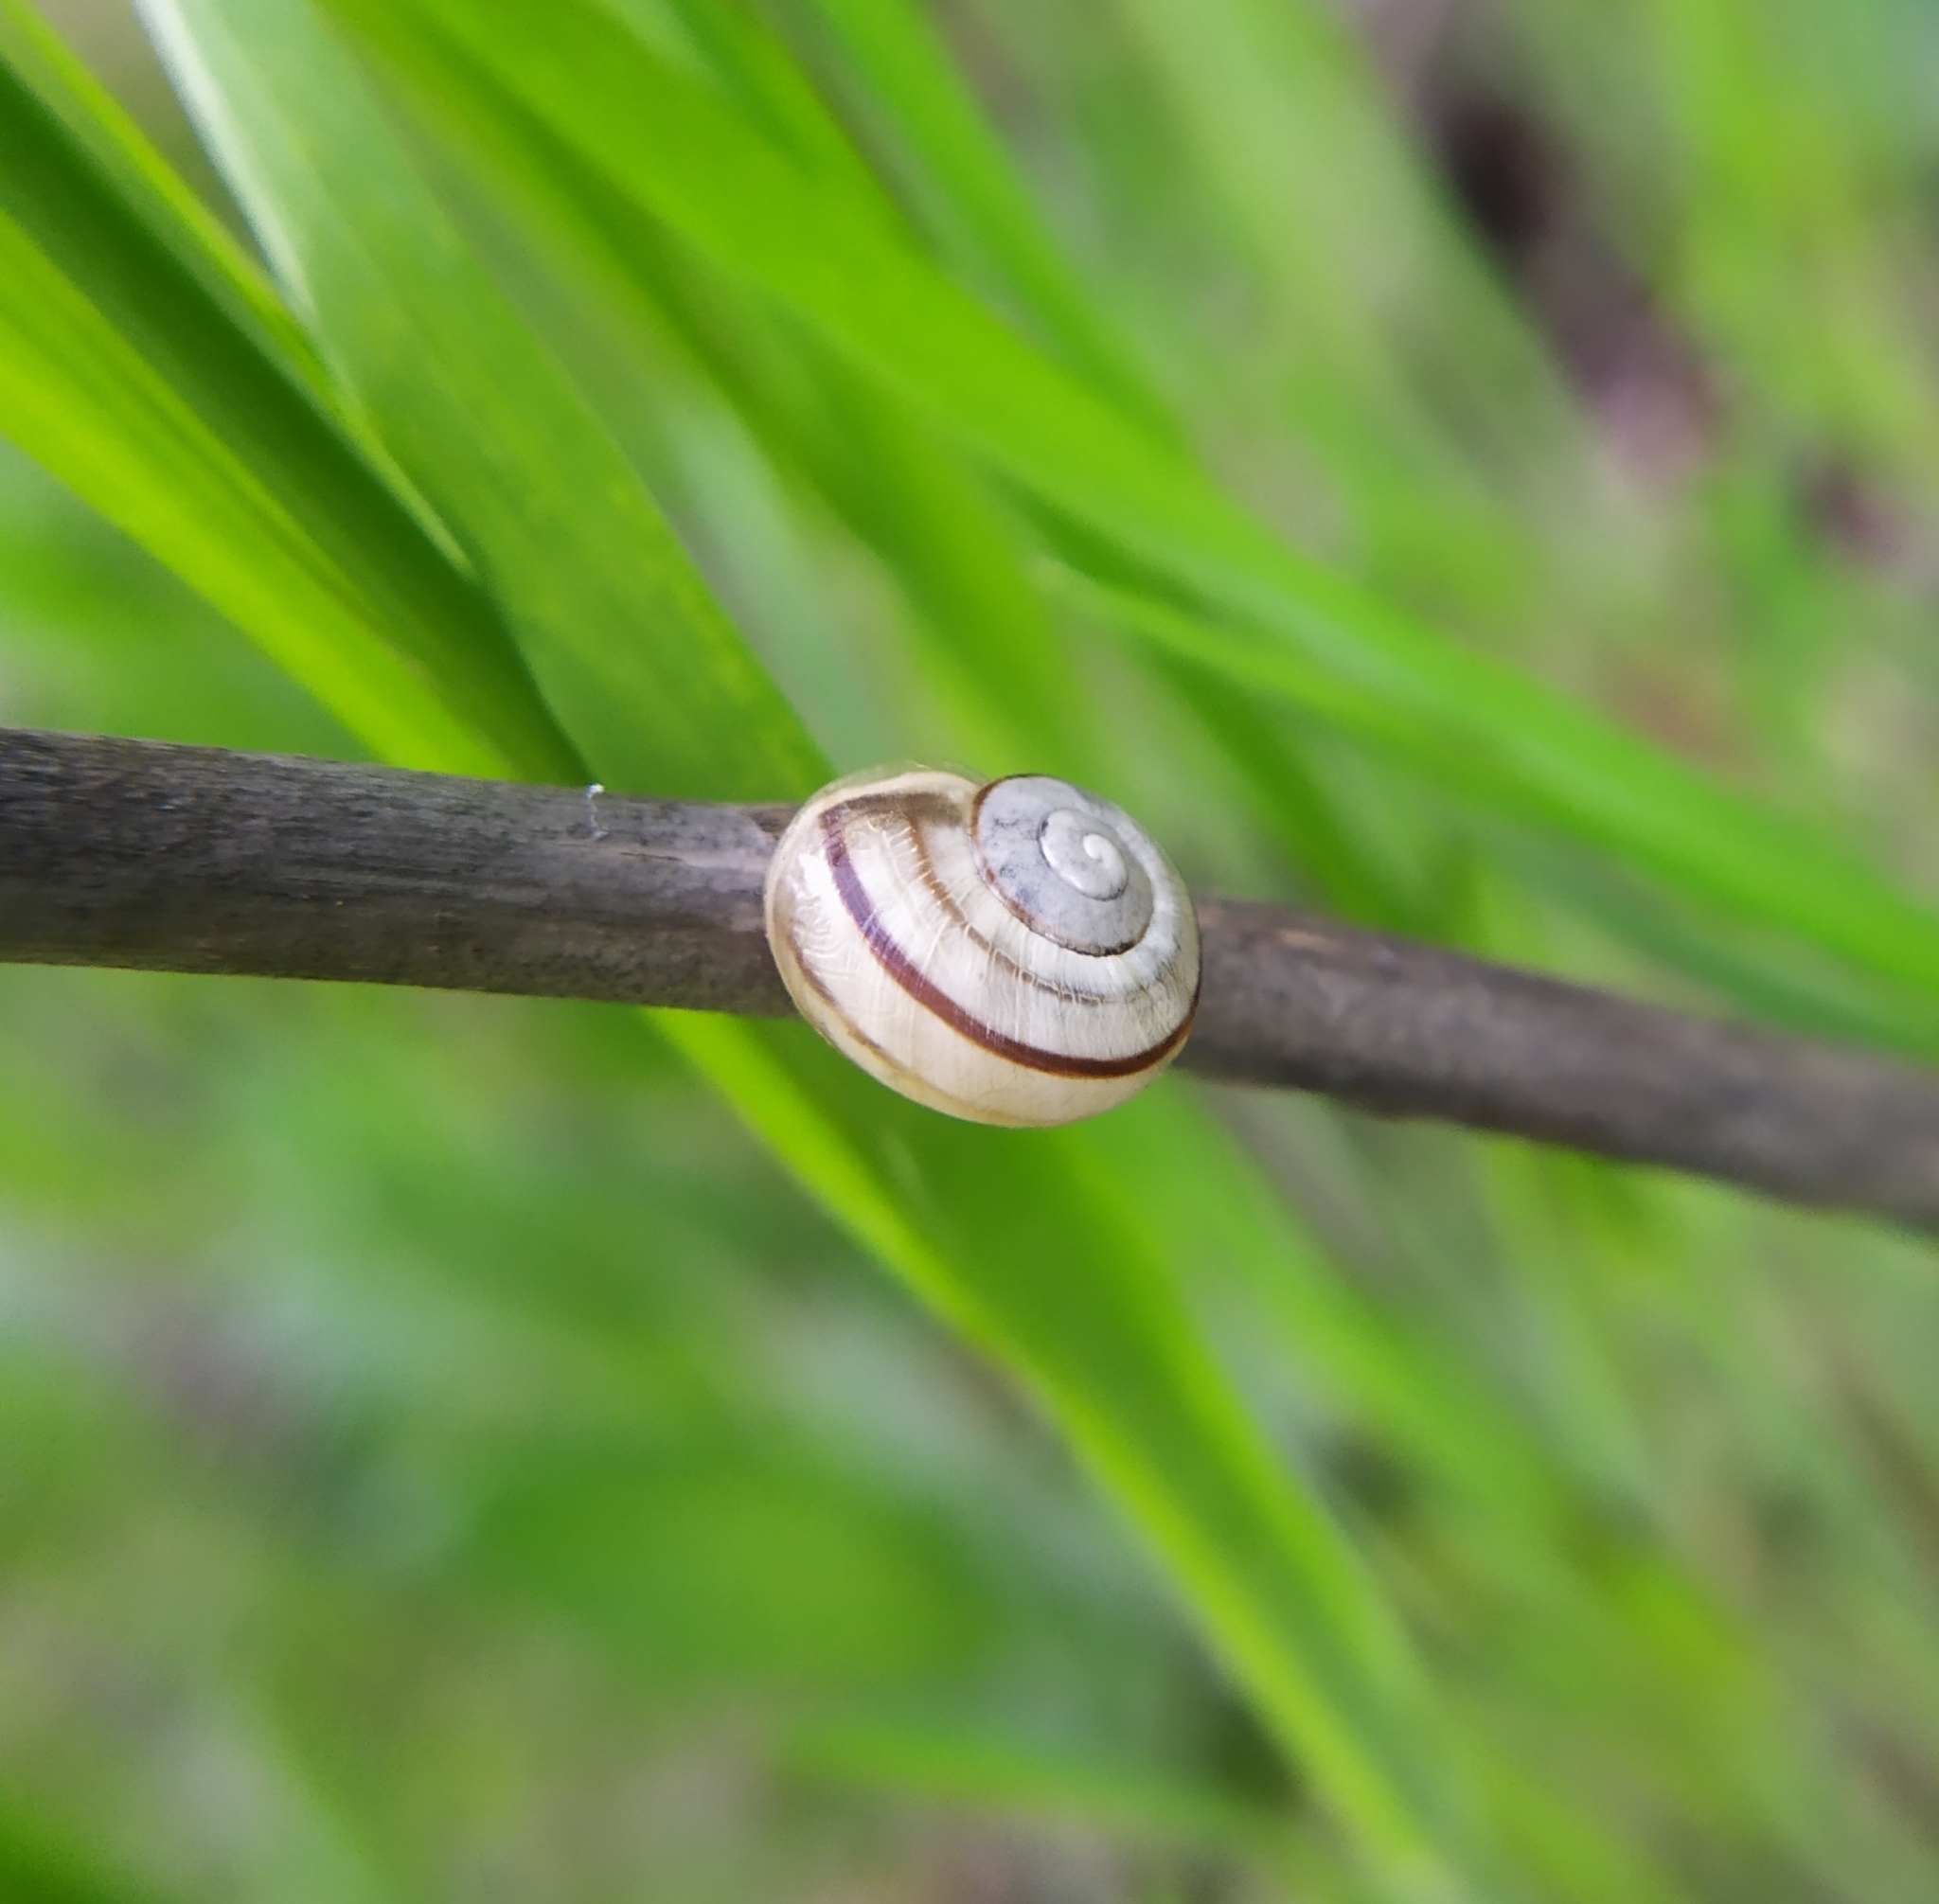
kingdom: Animalia
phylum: Mollusca
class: Gastropoda
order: Stylommatophora
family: Helicidae
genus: Cepaea
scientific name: Cepaea
